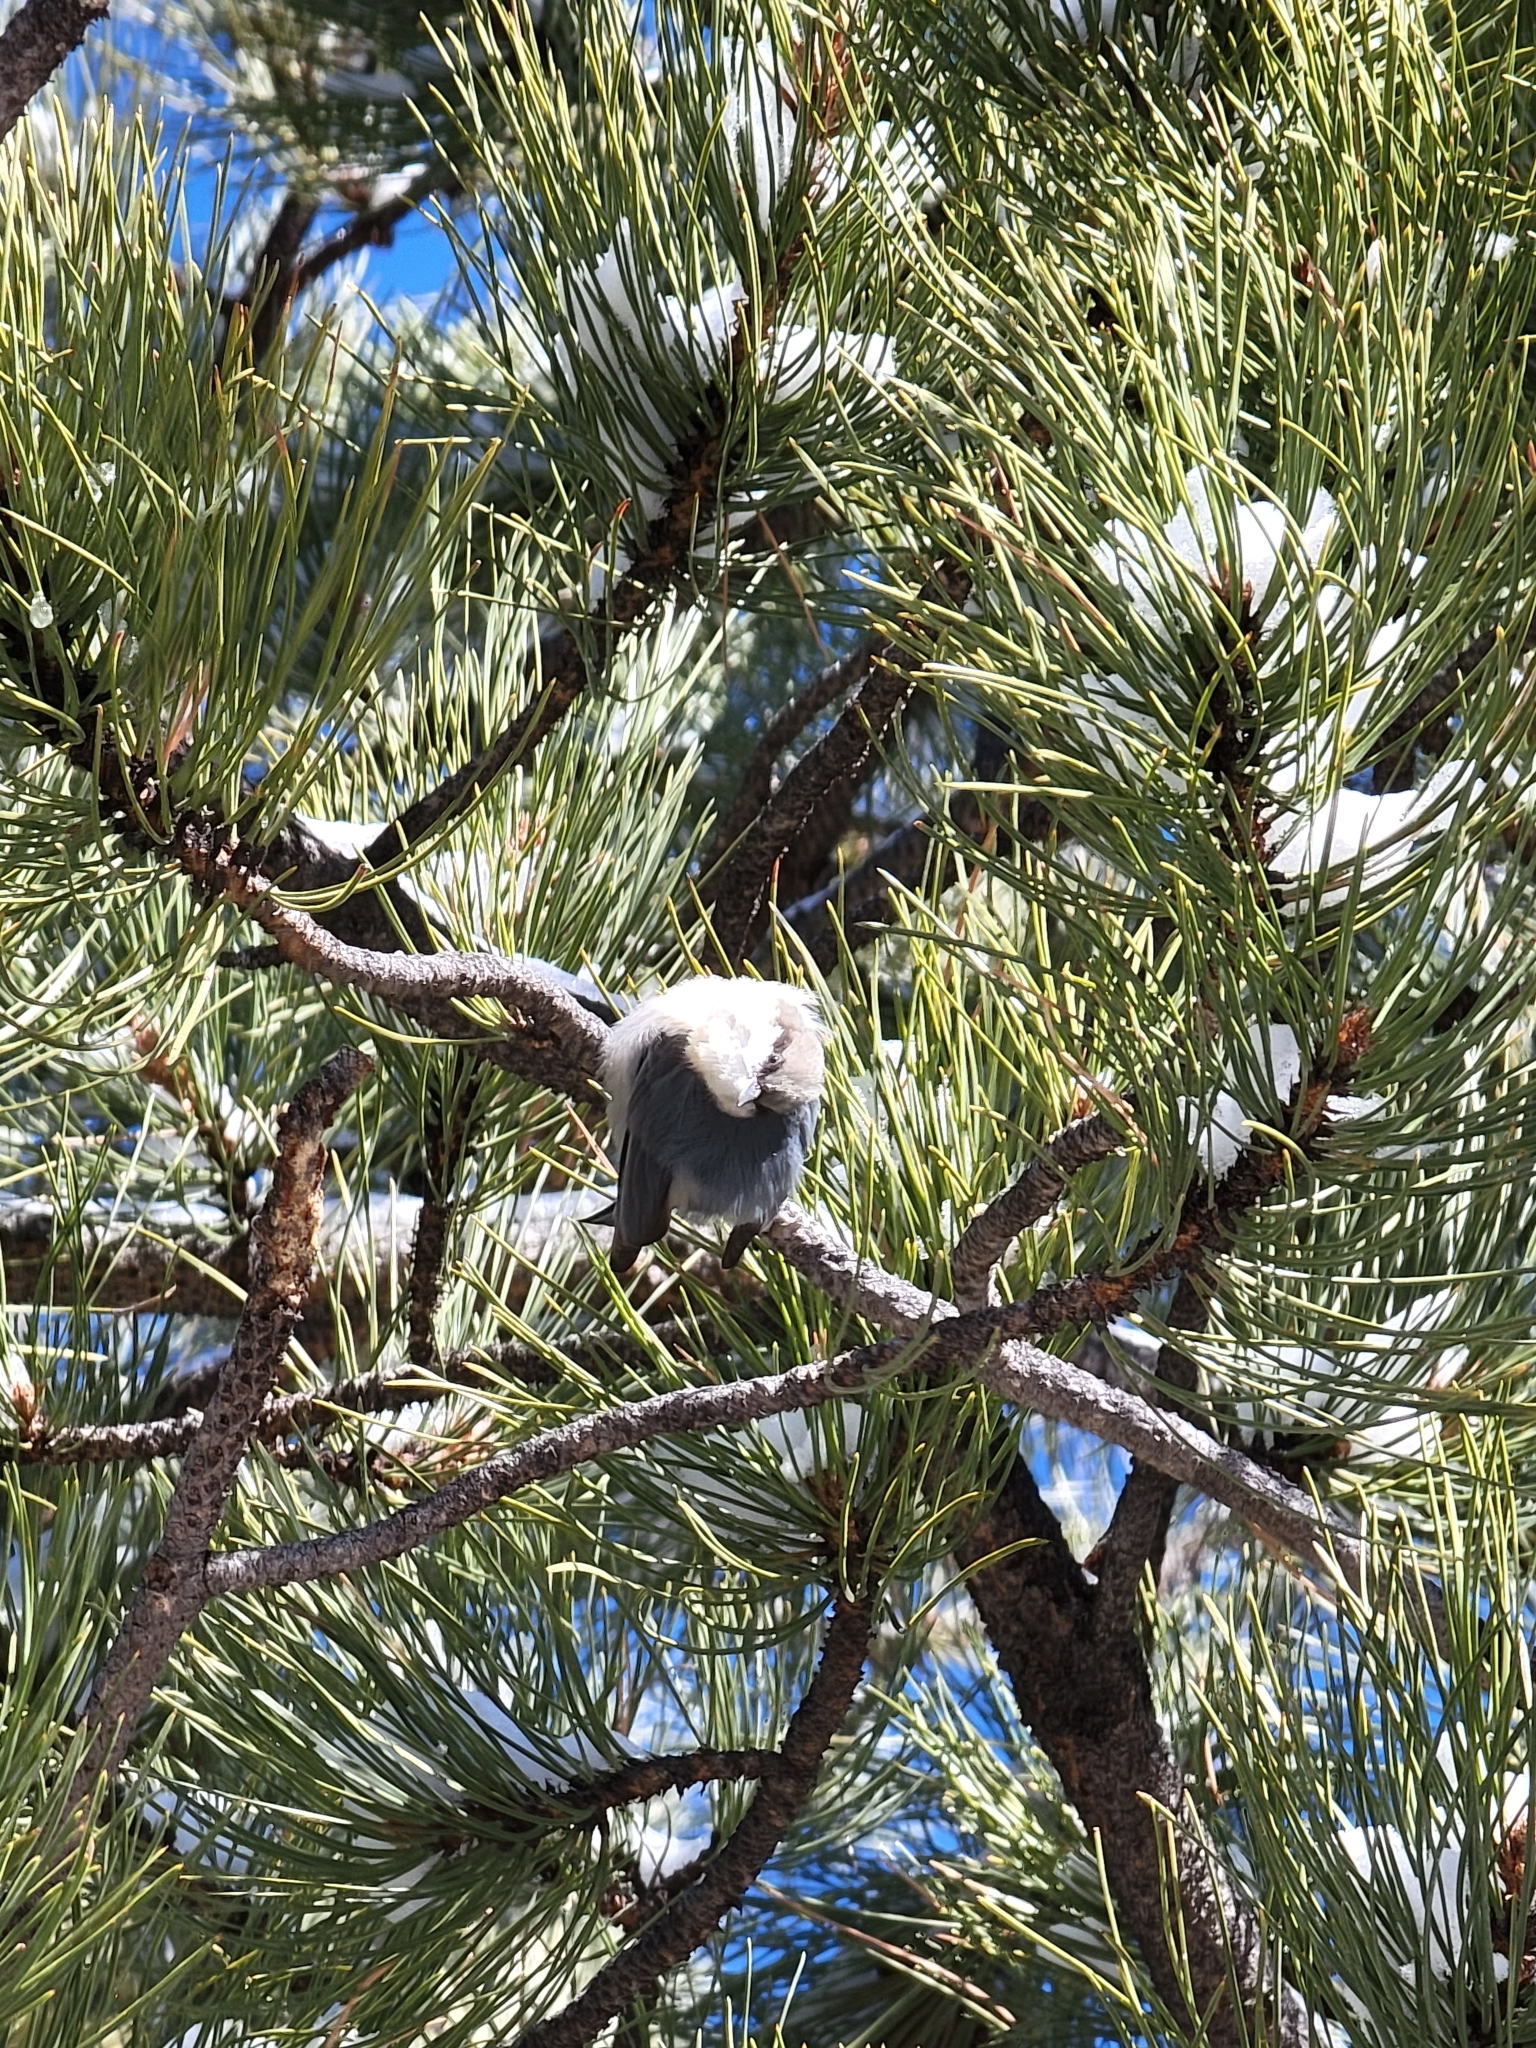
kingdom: Animalia
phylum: Chordata
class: Aves
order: Passeriformes
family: Sittidae
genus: Sitta
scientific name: Sitta pygmaea
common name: Pygmy nuthatch
